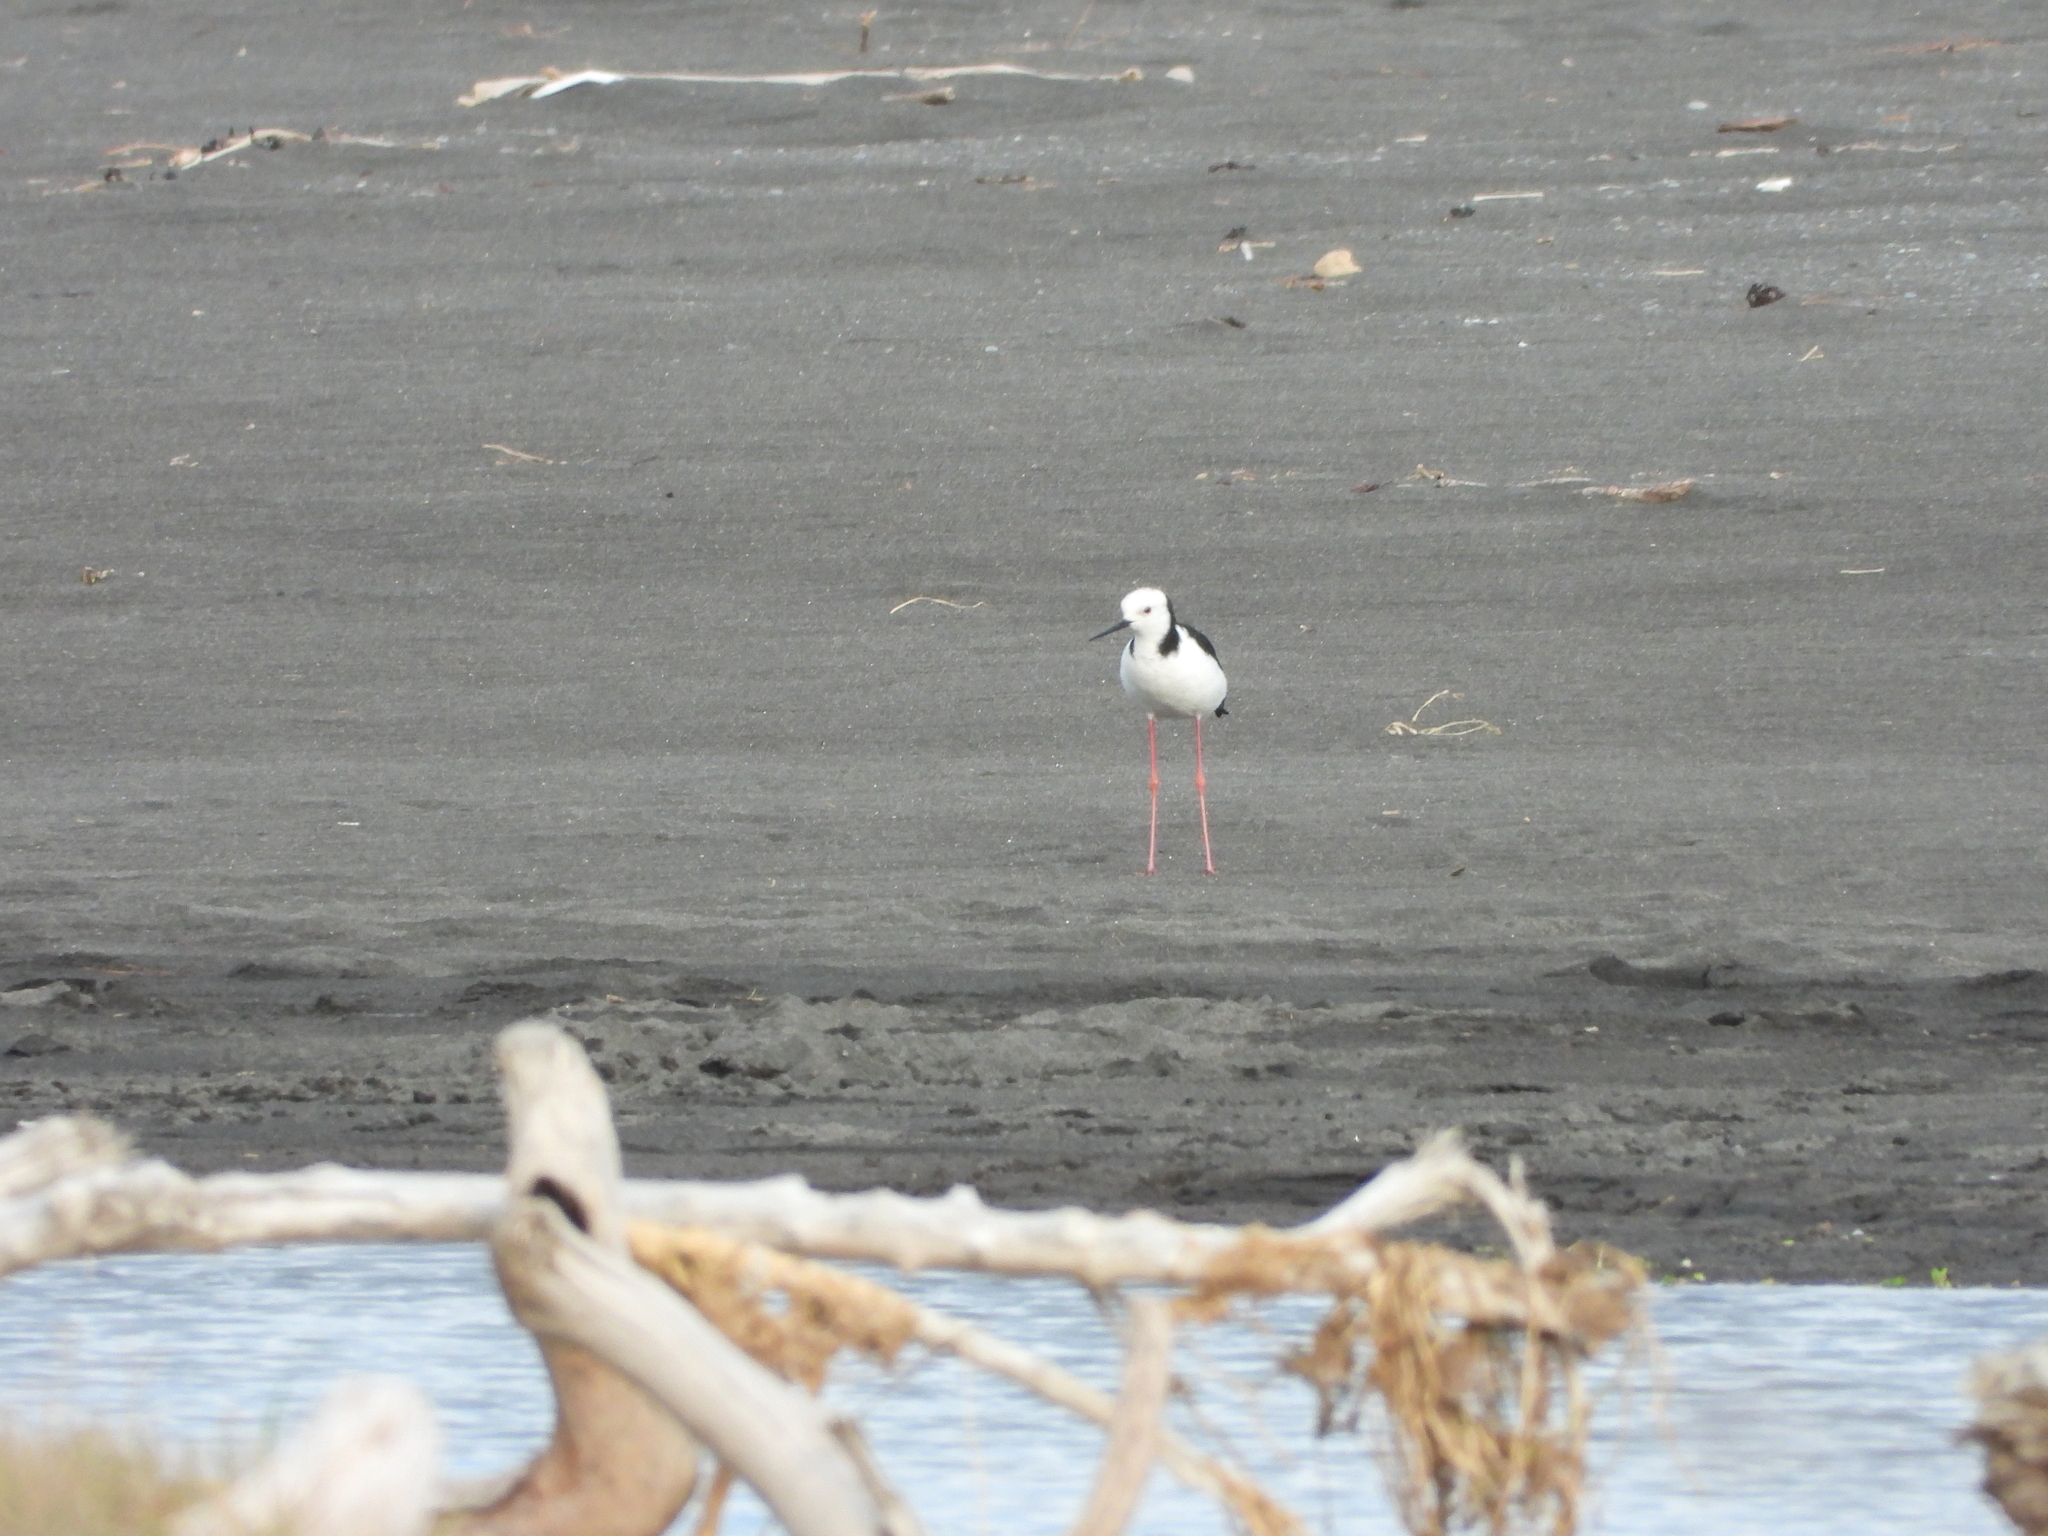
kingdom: Animalia
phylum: Chordata
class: Aves
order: Charadriiformes
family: Recurvirostridae
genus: Himantopus
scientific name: Himantopus leucocephalus
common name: White-headed stilt
